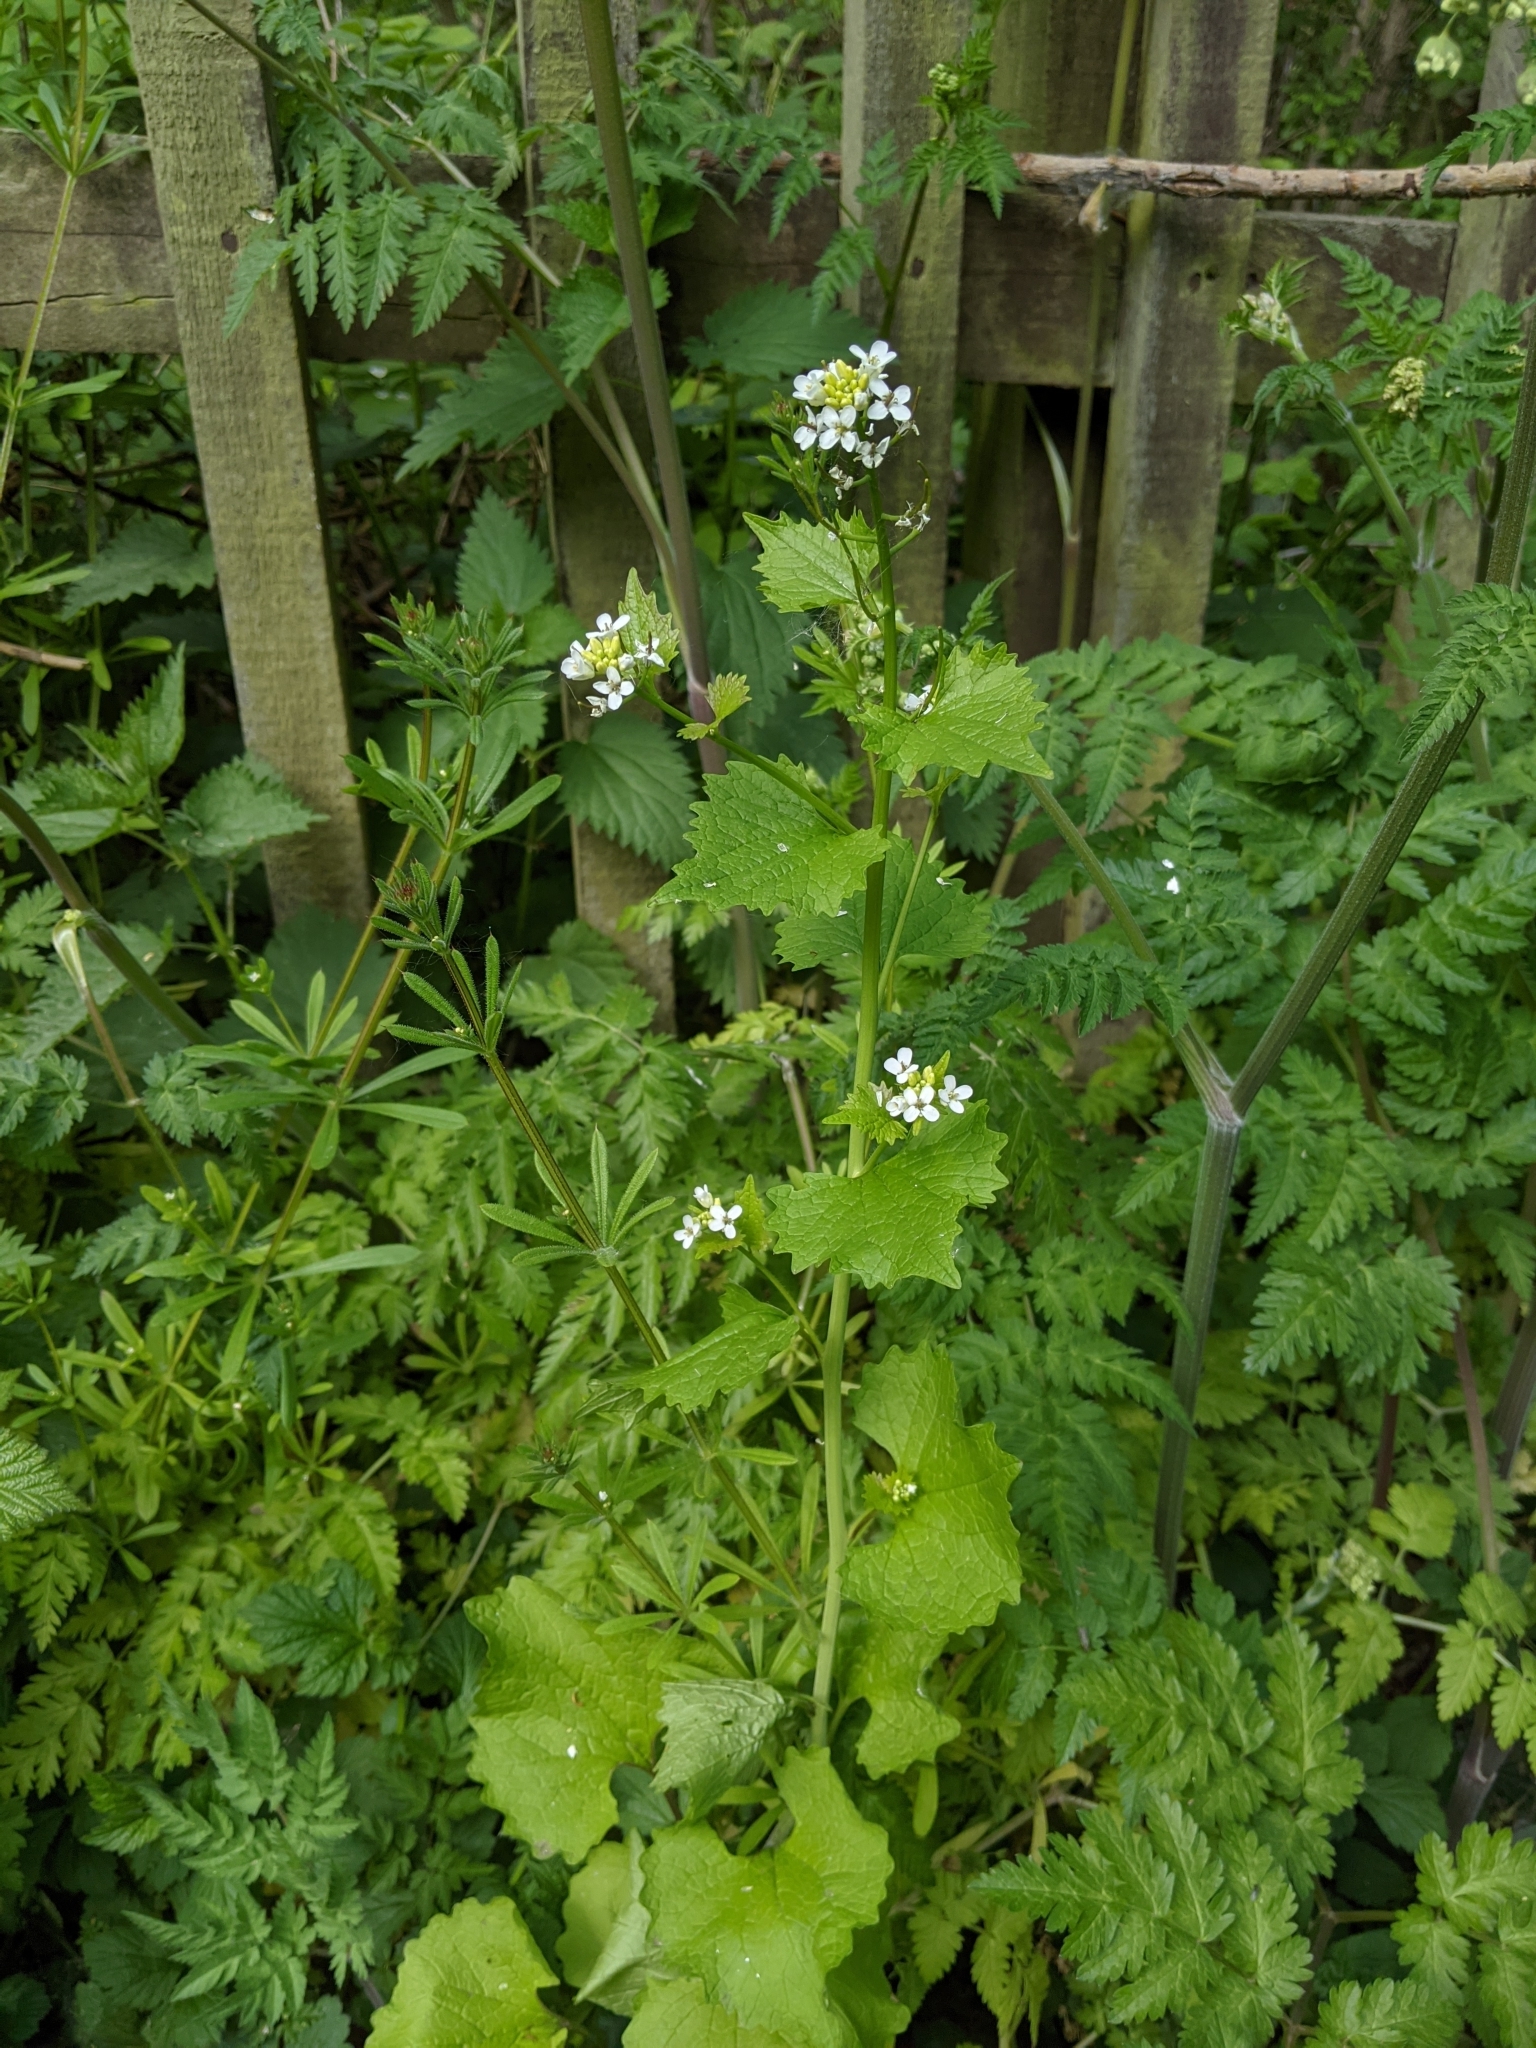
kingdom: Plantae
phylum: Tracheophyta
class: Magnoliopsida
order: Brassicales
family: Brassicaceae
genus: Alliaria
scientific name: Alliaria petiolata
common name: Garlic mustard
